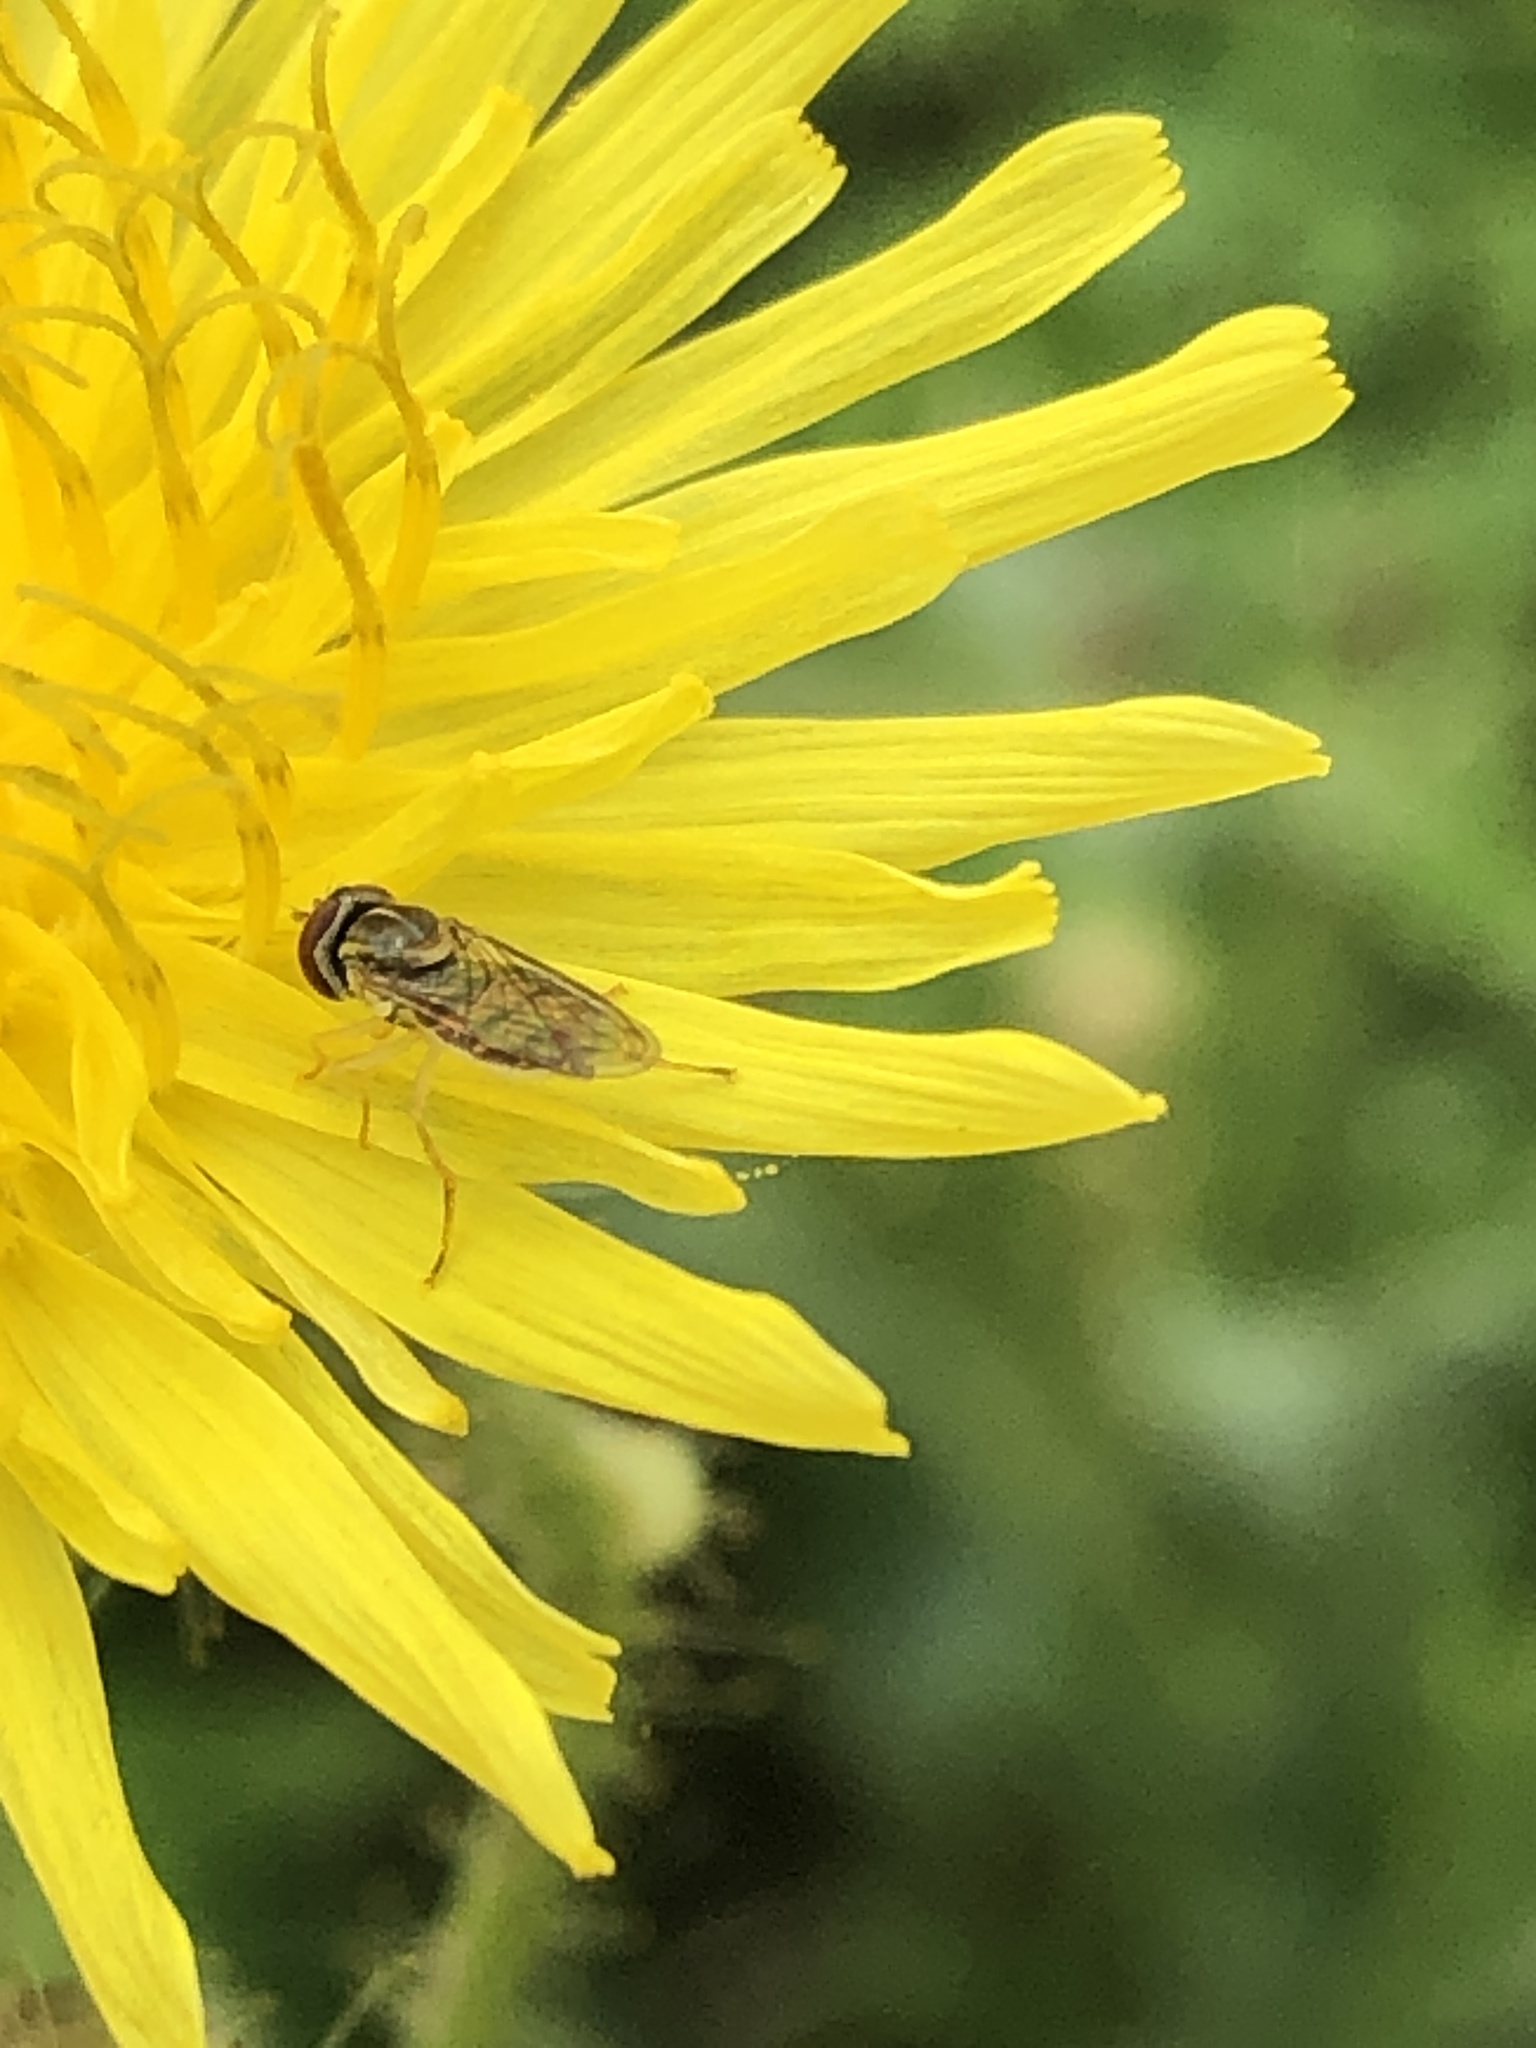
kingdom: Animalia
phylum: Arthropoda
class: Insecta
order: Diptera
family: Syrphidae
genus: Toxomerus
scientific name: Toxomerus marginatus
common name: Syrphid fly
